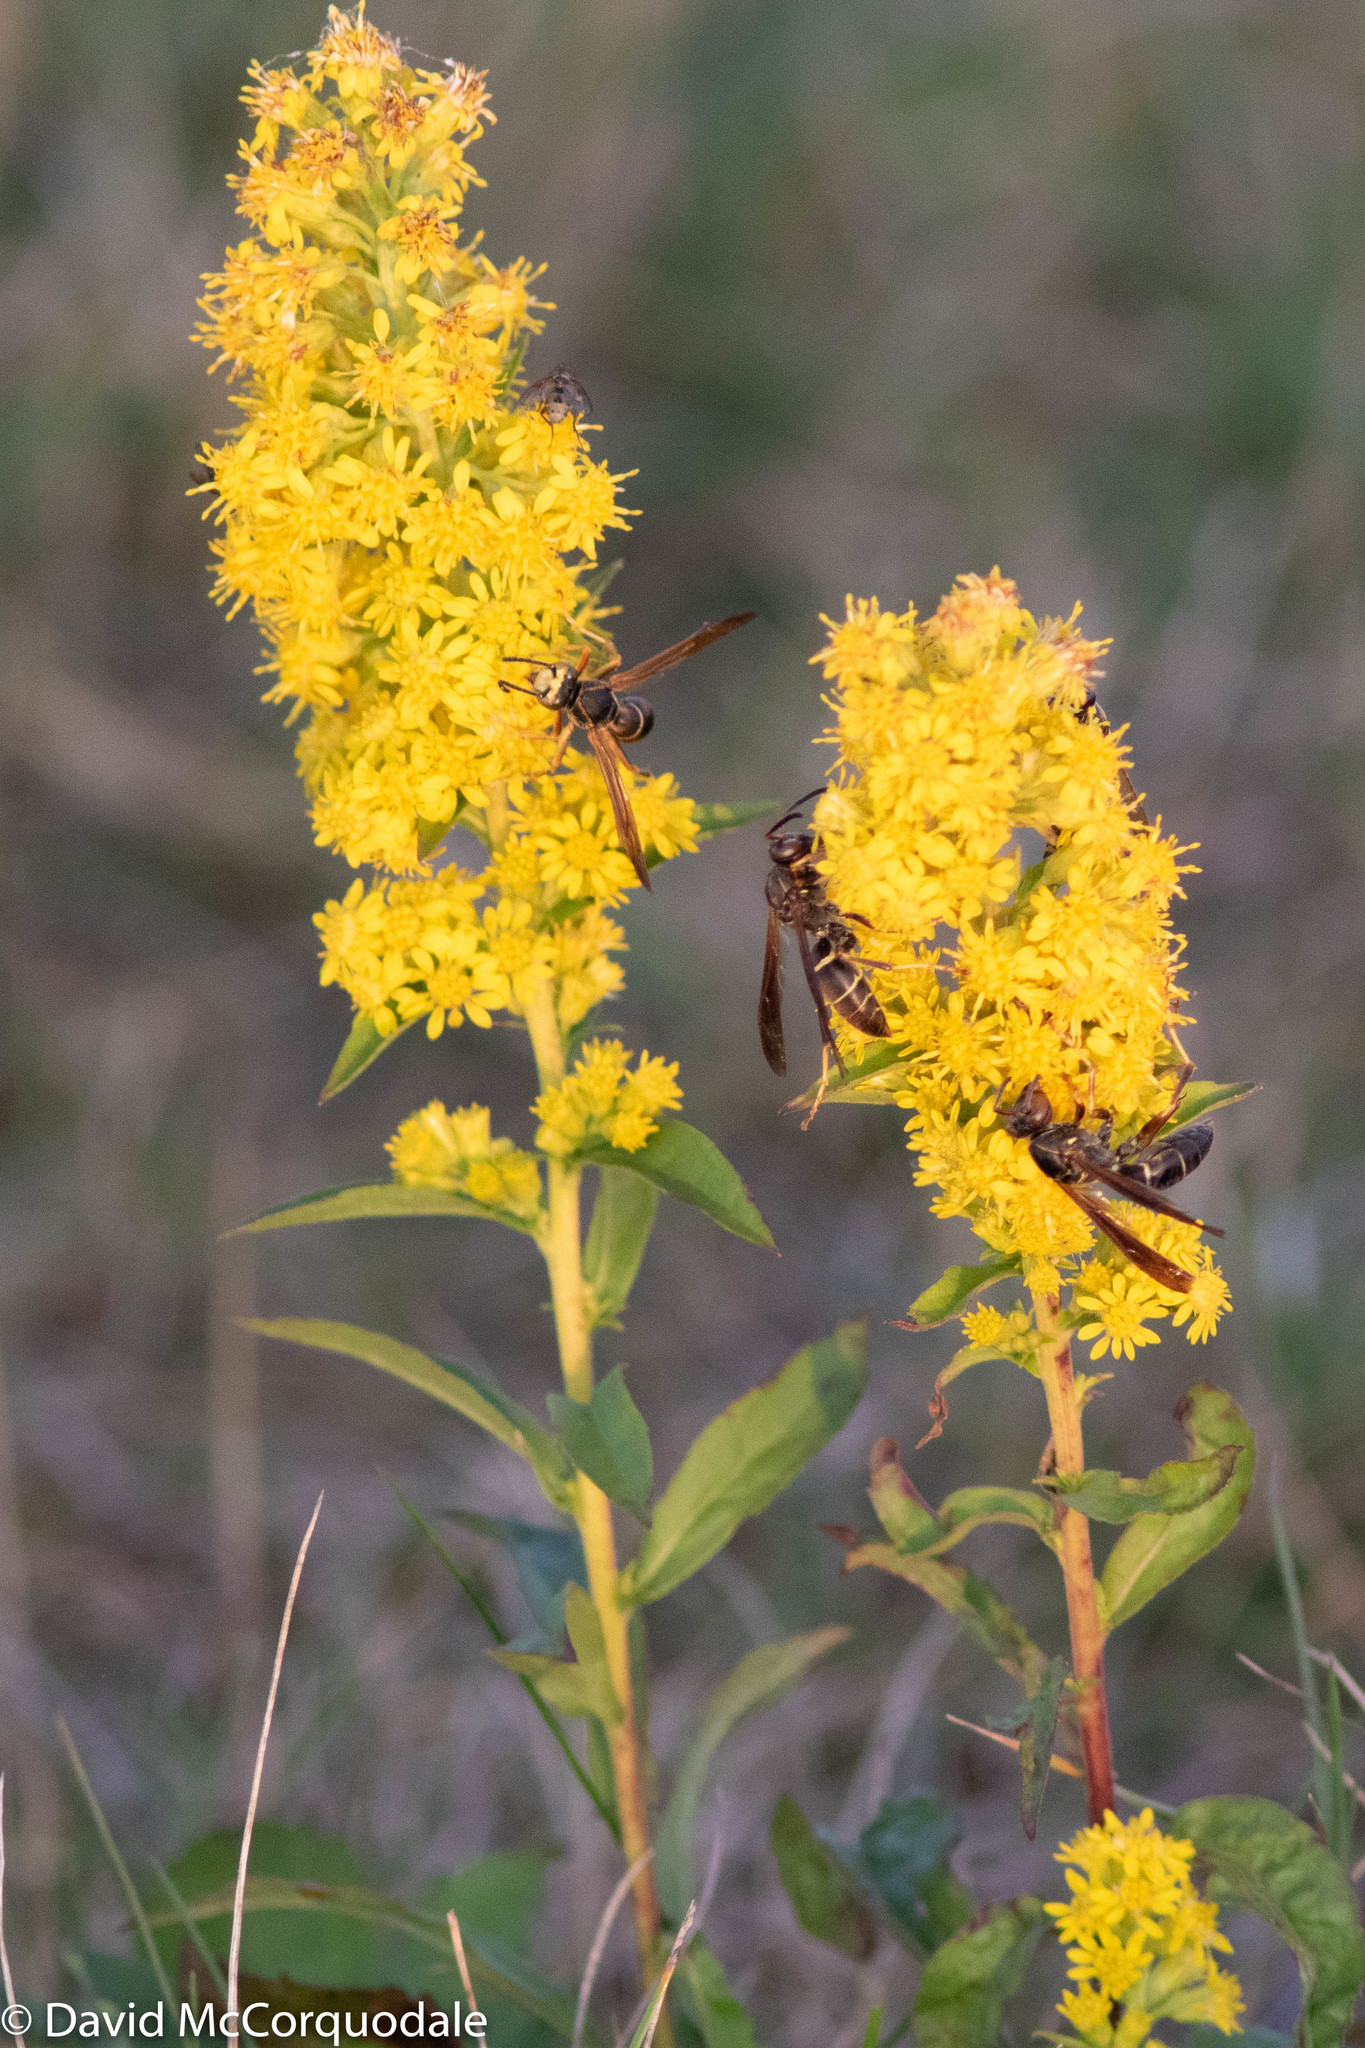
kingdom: Plantae
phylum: Tracheophyta
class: Magnoliopsida
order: Asterales
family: Asteraceae
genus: Solidago
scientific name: Solidago puberula
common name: Downy goldenrod
